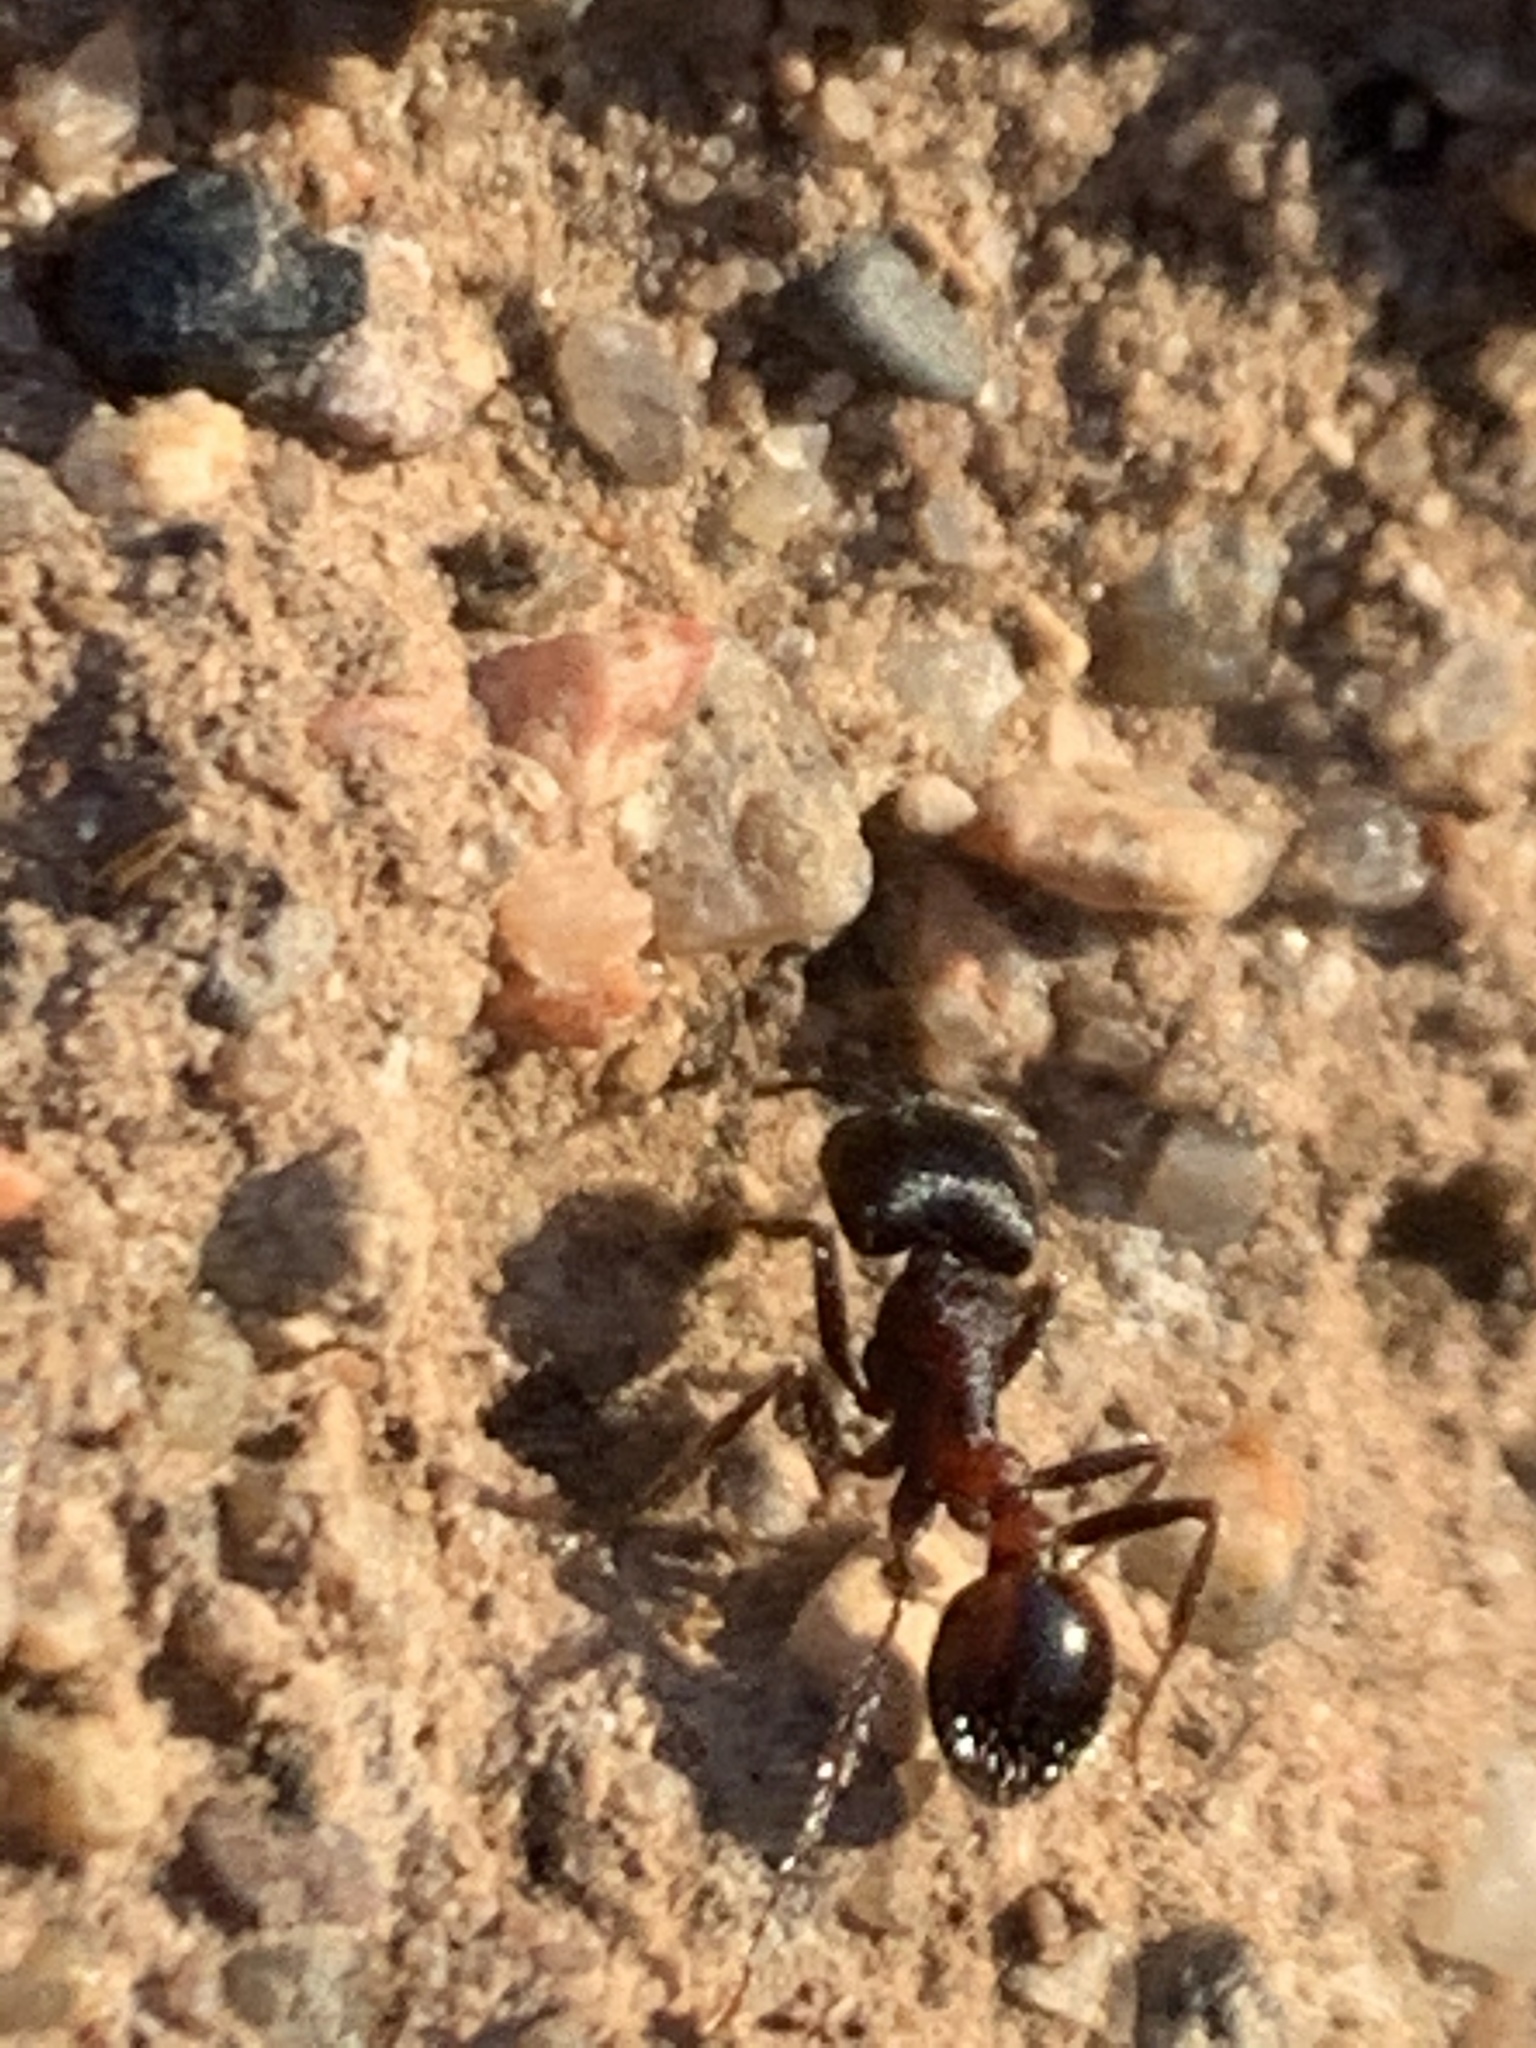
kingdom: Animalia
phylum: Arthropoda
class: Insecta
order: Hymenoptera
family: Formicidae
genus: Pogonomyrmex
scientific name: Pogonomyrmex rugosus
